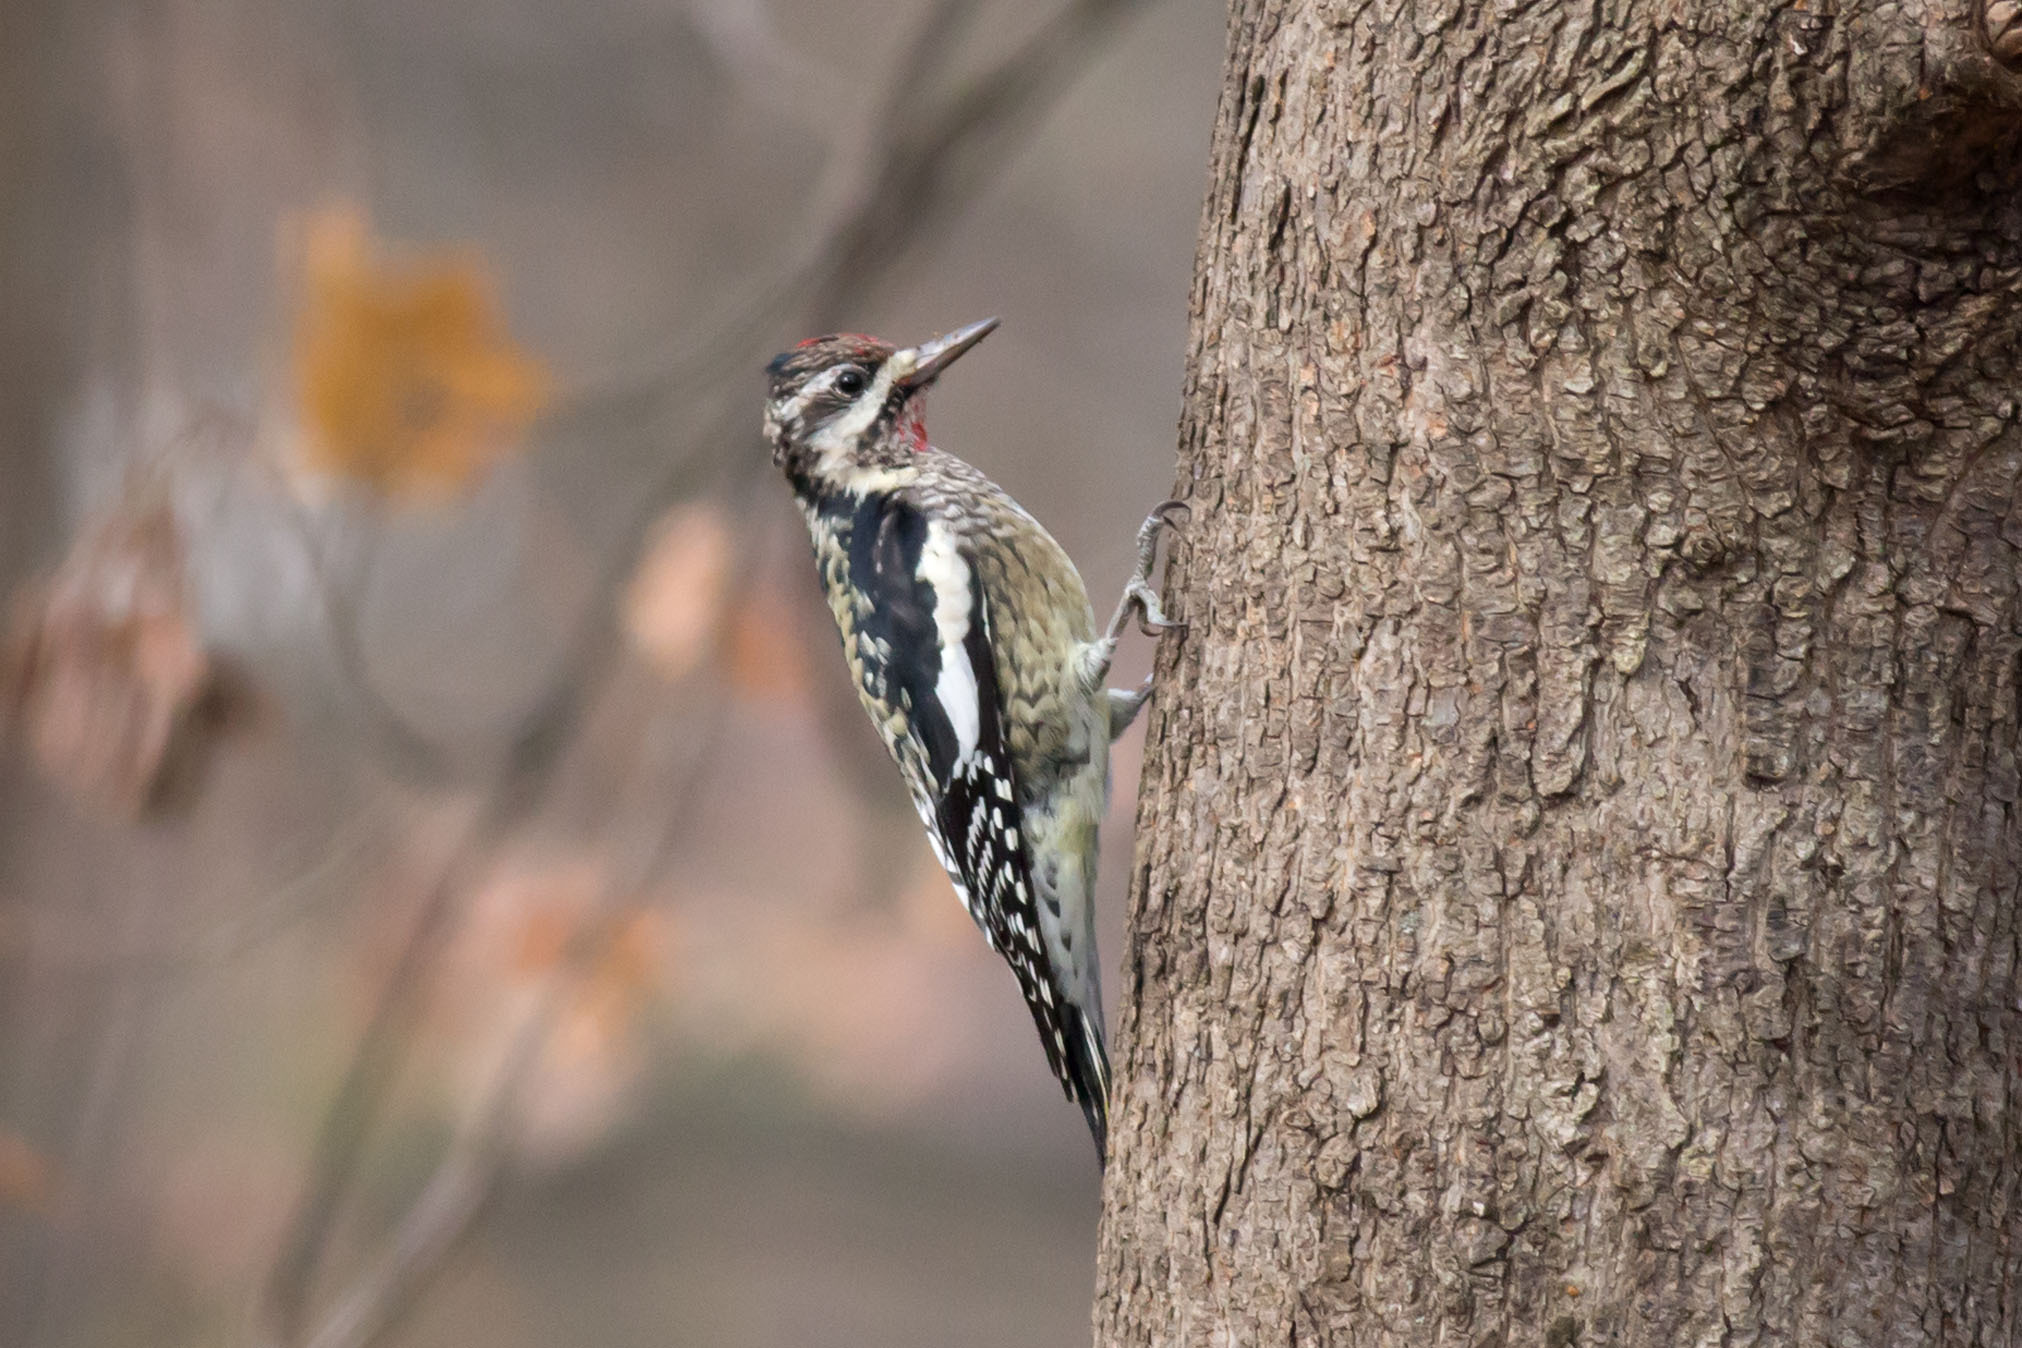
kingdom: Animalia
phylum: Chordata
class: Aves
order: Piciformes
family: Picidae
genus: Sphyrapicus
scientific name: Sphyrapicus varius
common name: Yellow-bellied sapsucker
